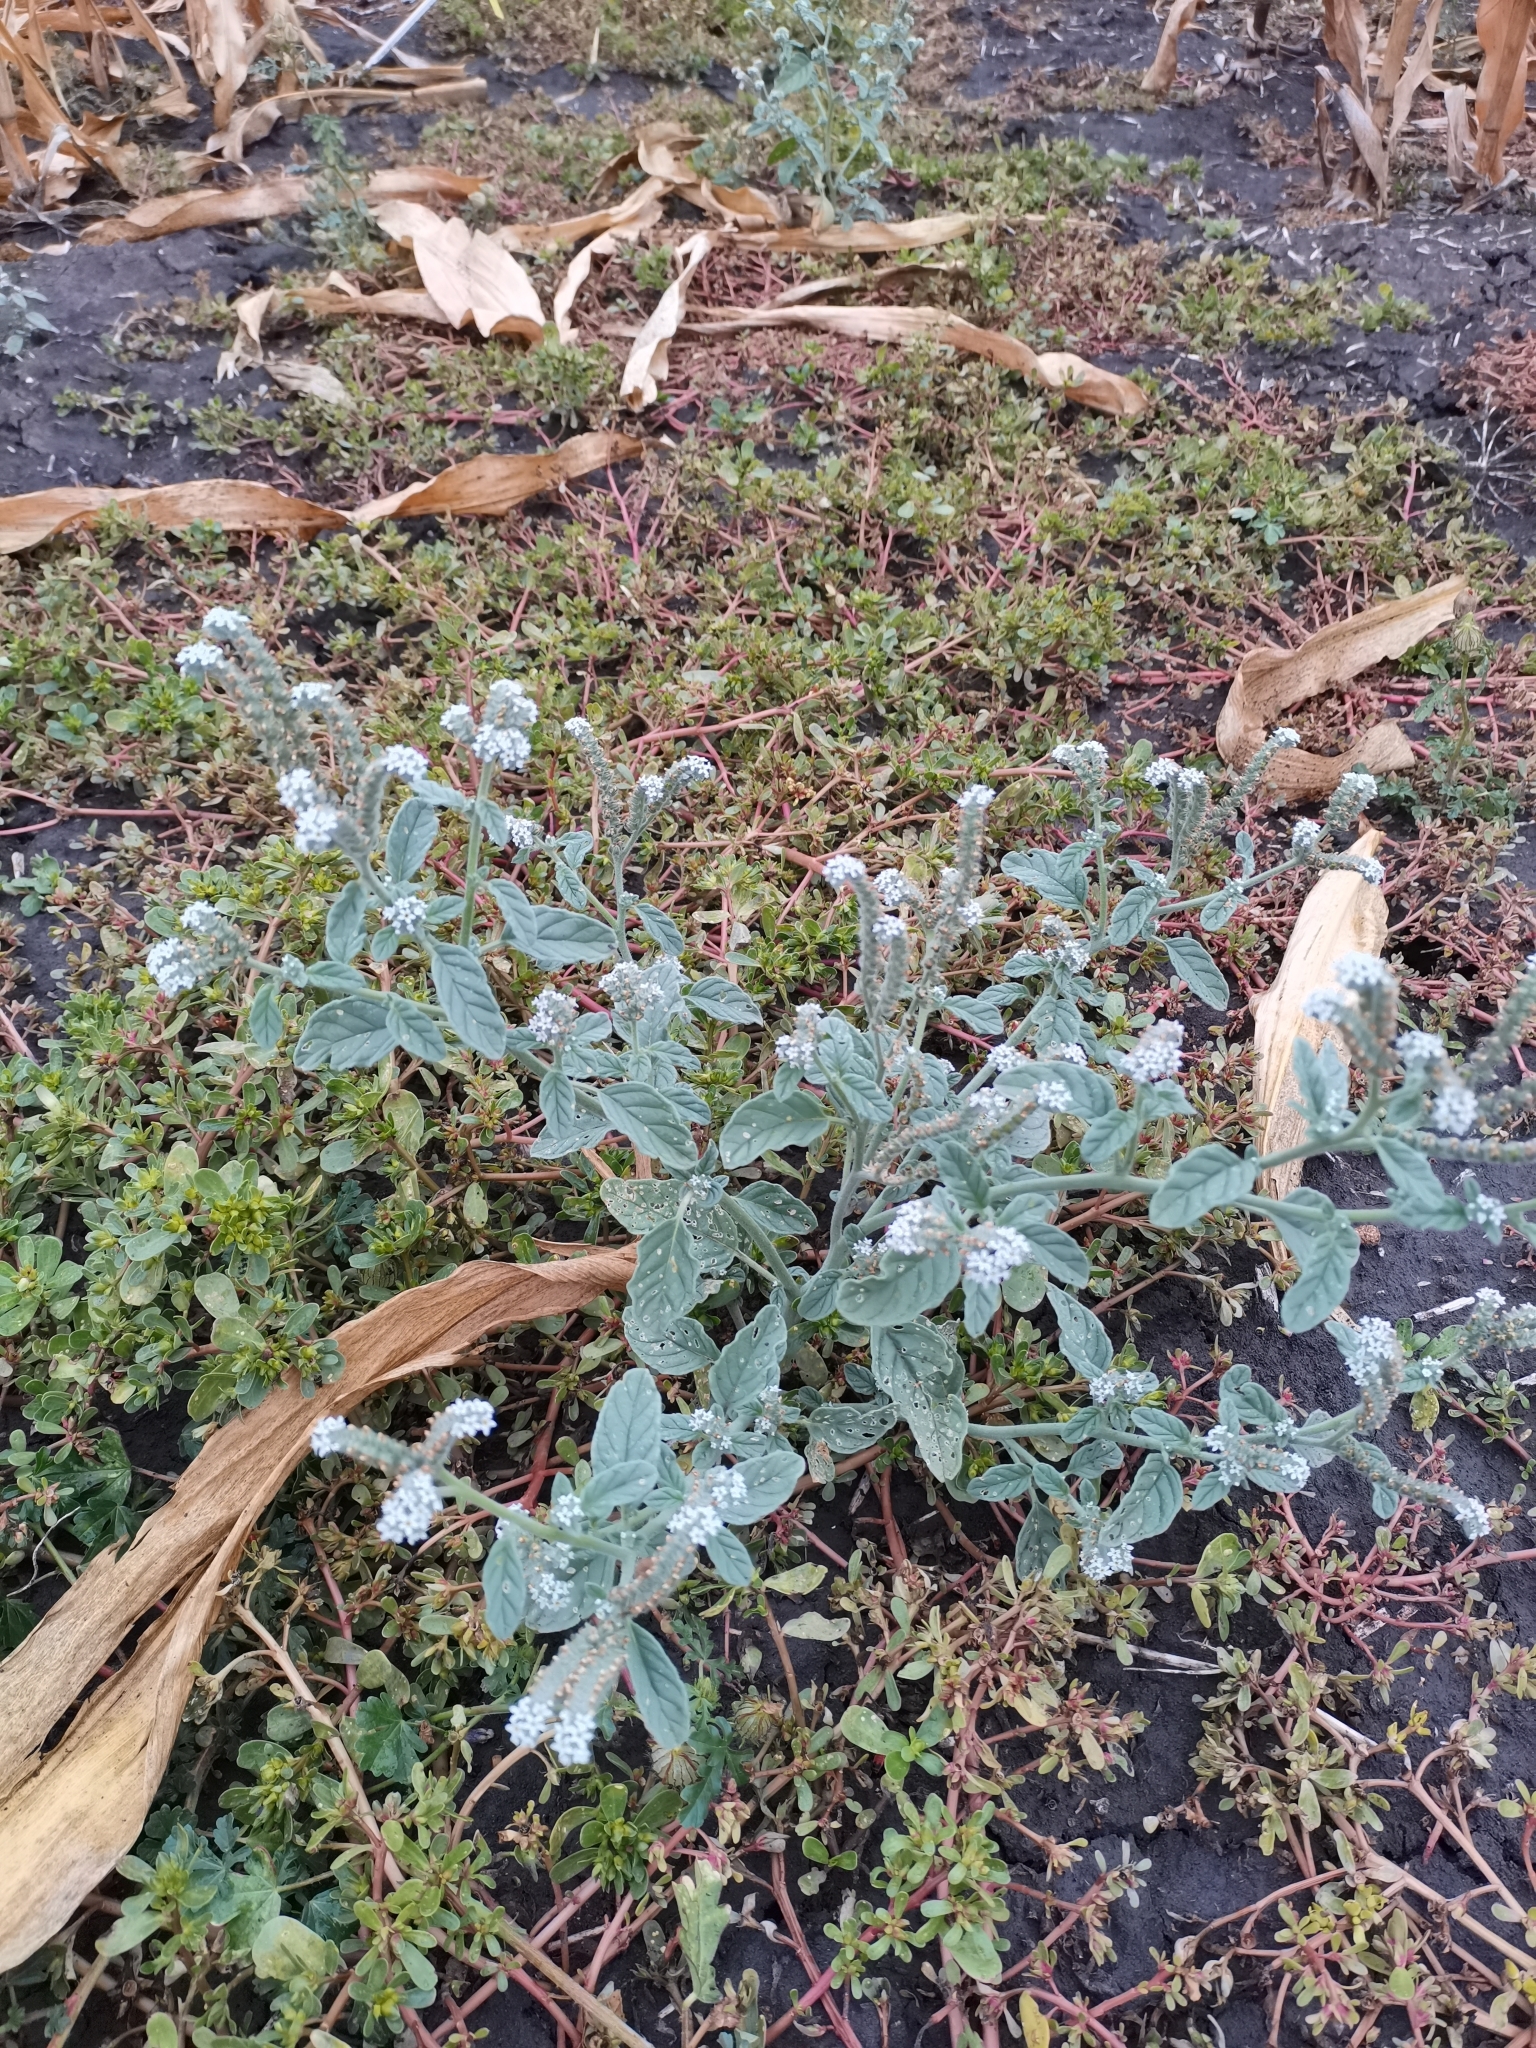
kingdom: Plantae
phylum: Tracheophyta
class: Magnoliopsida
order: Boraginales
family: Heliotropiaceae
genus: Heliotropium
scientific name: Heliotropium europaeum
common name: European heliotrope
